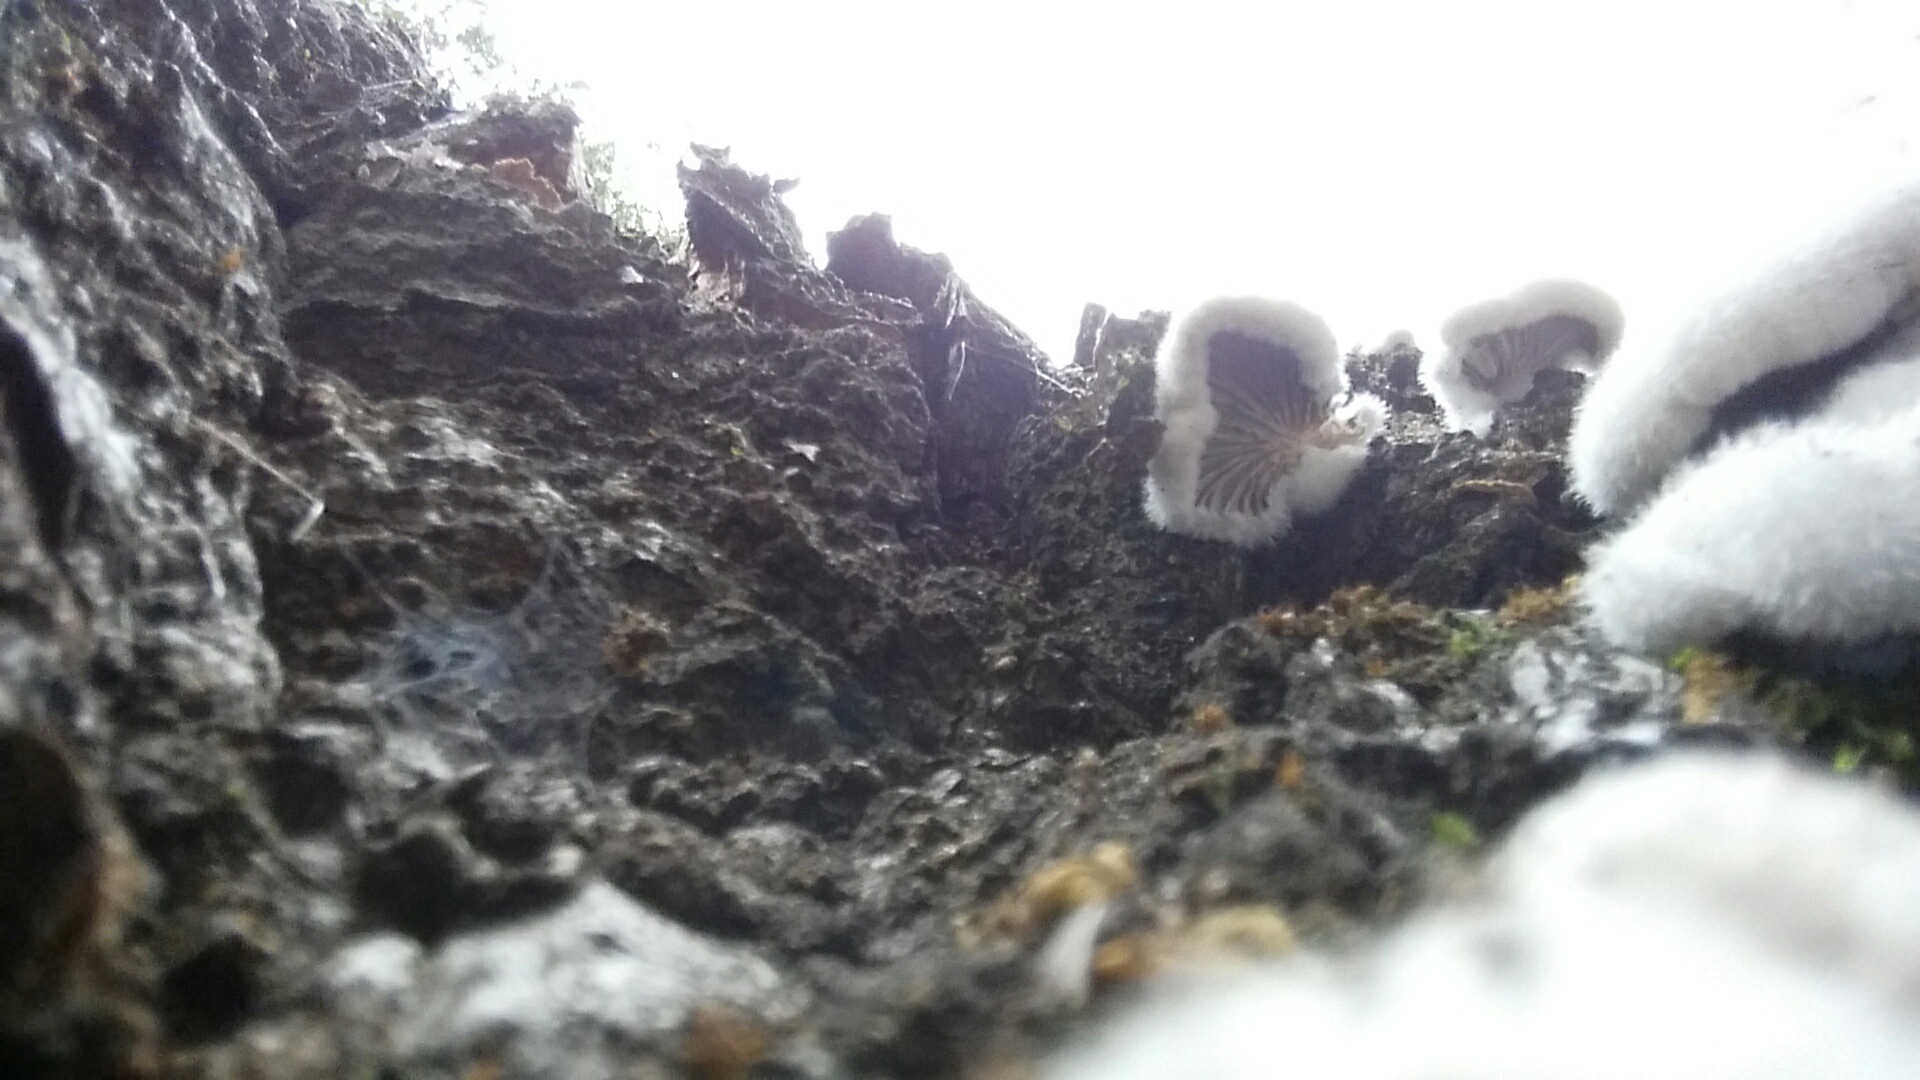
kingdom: Fungi
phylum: Basidiomycota
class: Agaricomycetes
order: Agaricales
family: Schizophyllaceae
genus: Schizophyllum
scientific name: Schizophyllum commune
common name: Common porecrust
